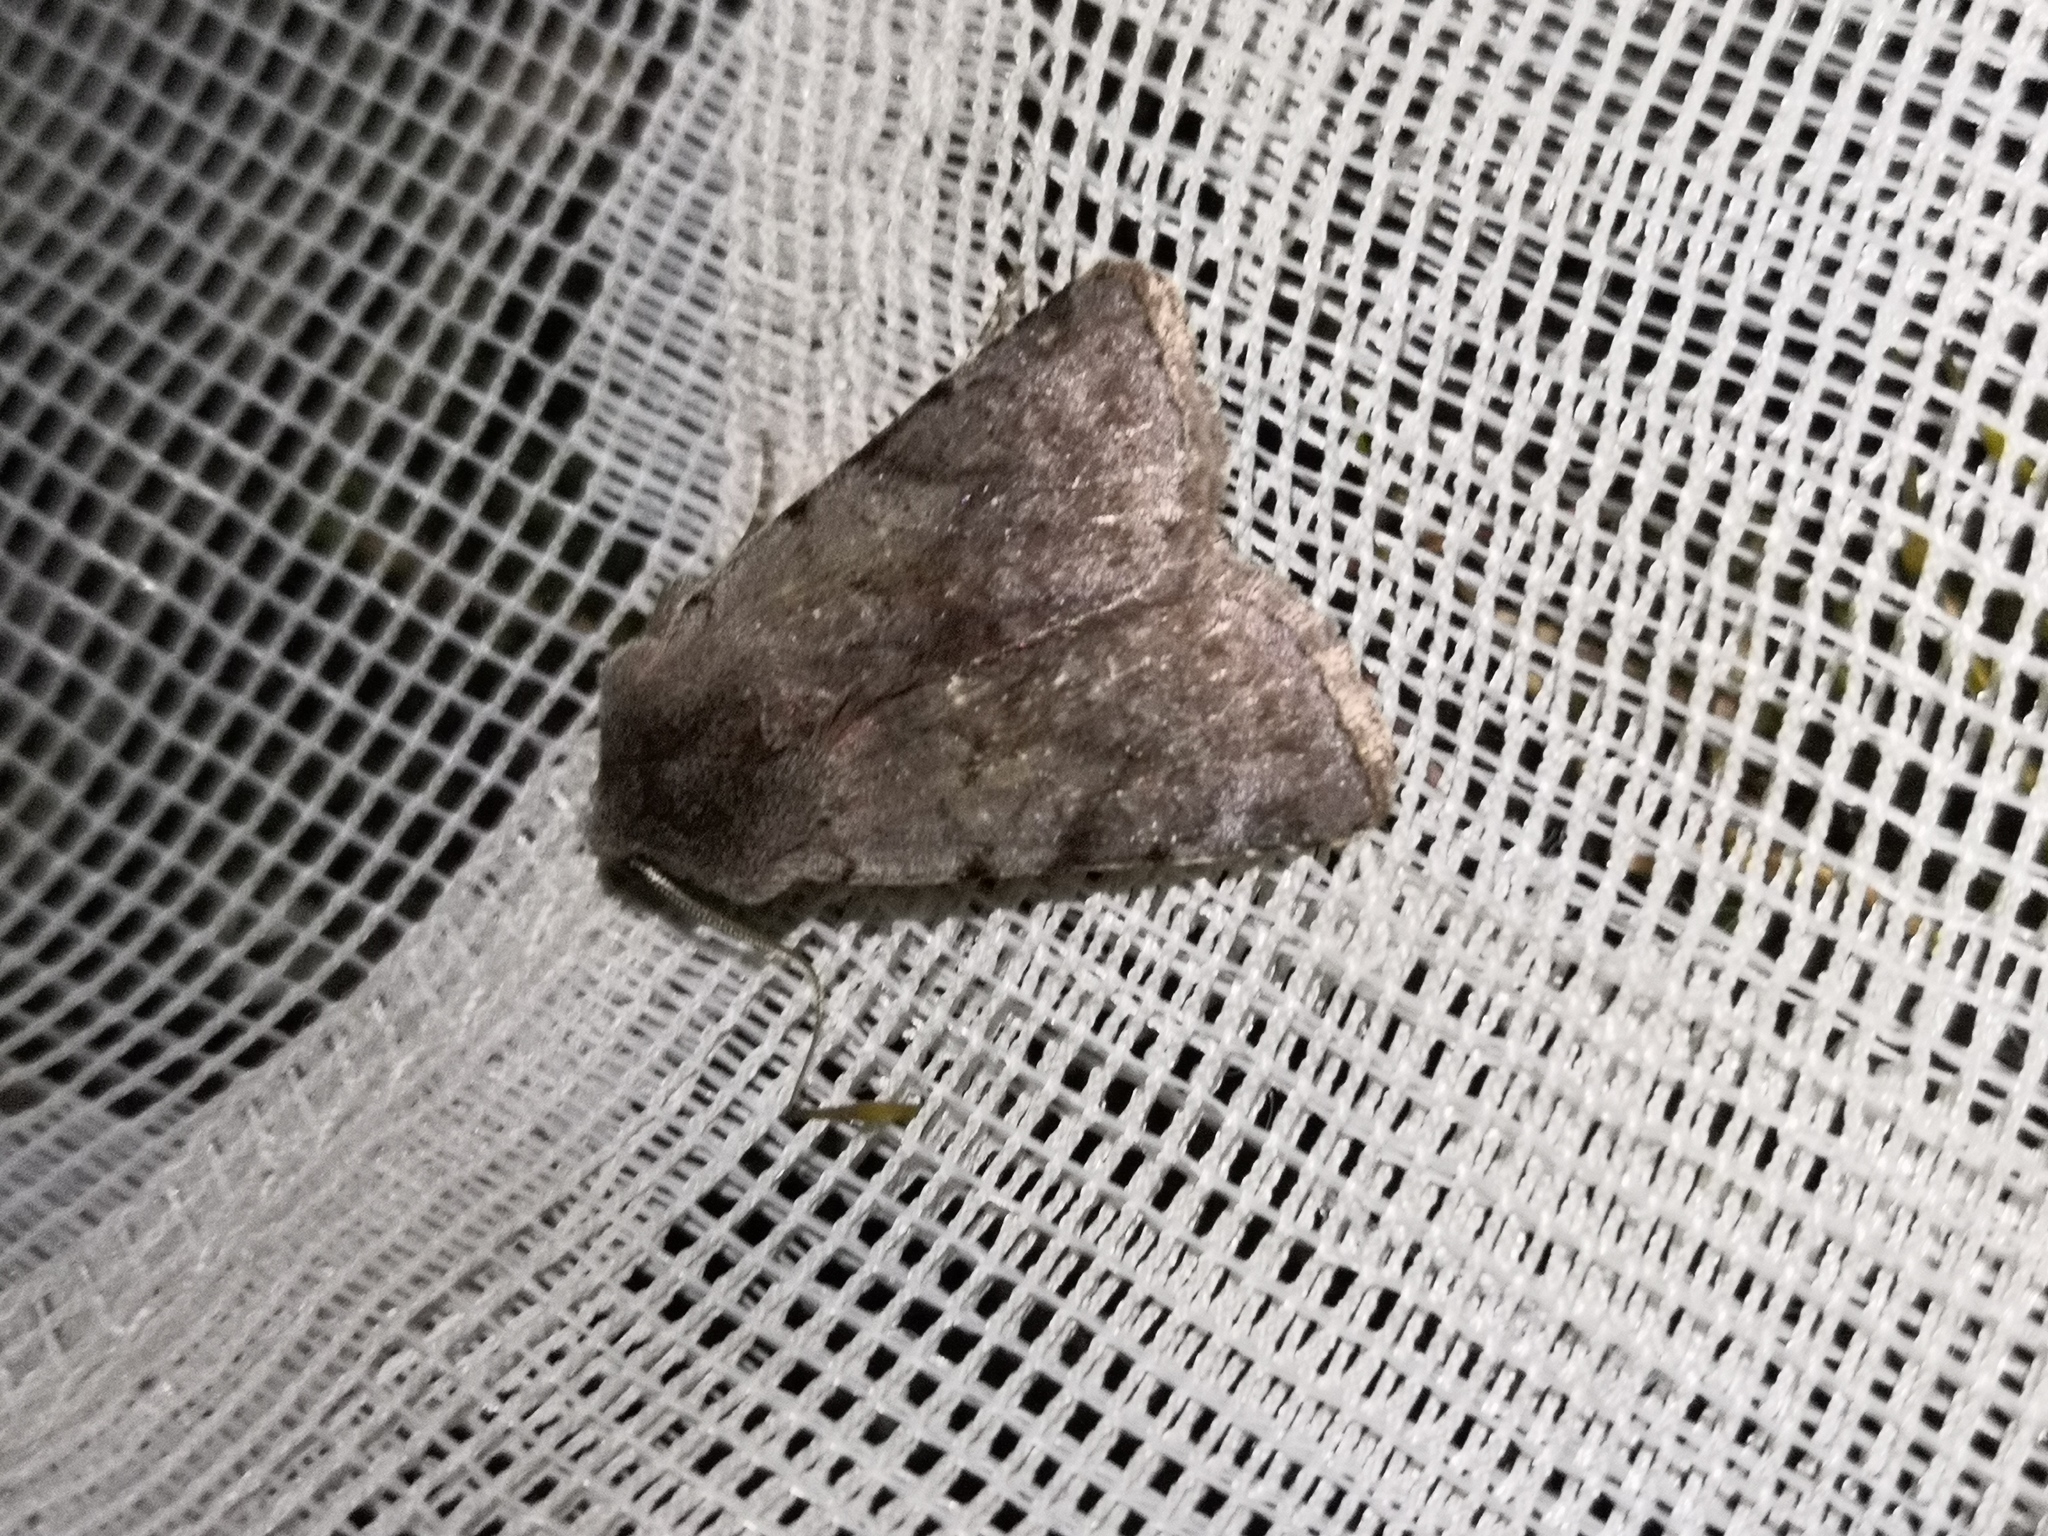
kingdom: Animalia
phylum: Arthropoda
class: Insecta
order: Lepidoptera
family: Noctuidae
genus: Cerastis
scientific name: Cerastis rubricosa
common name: Red chestnut
